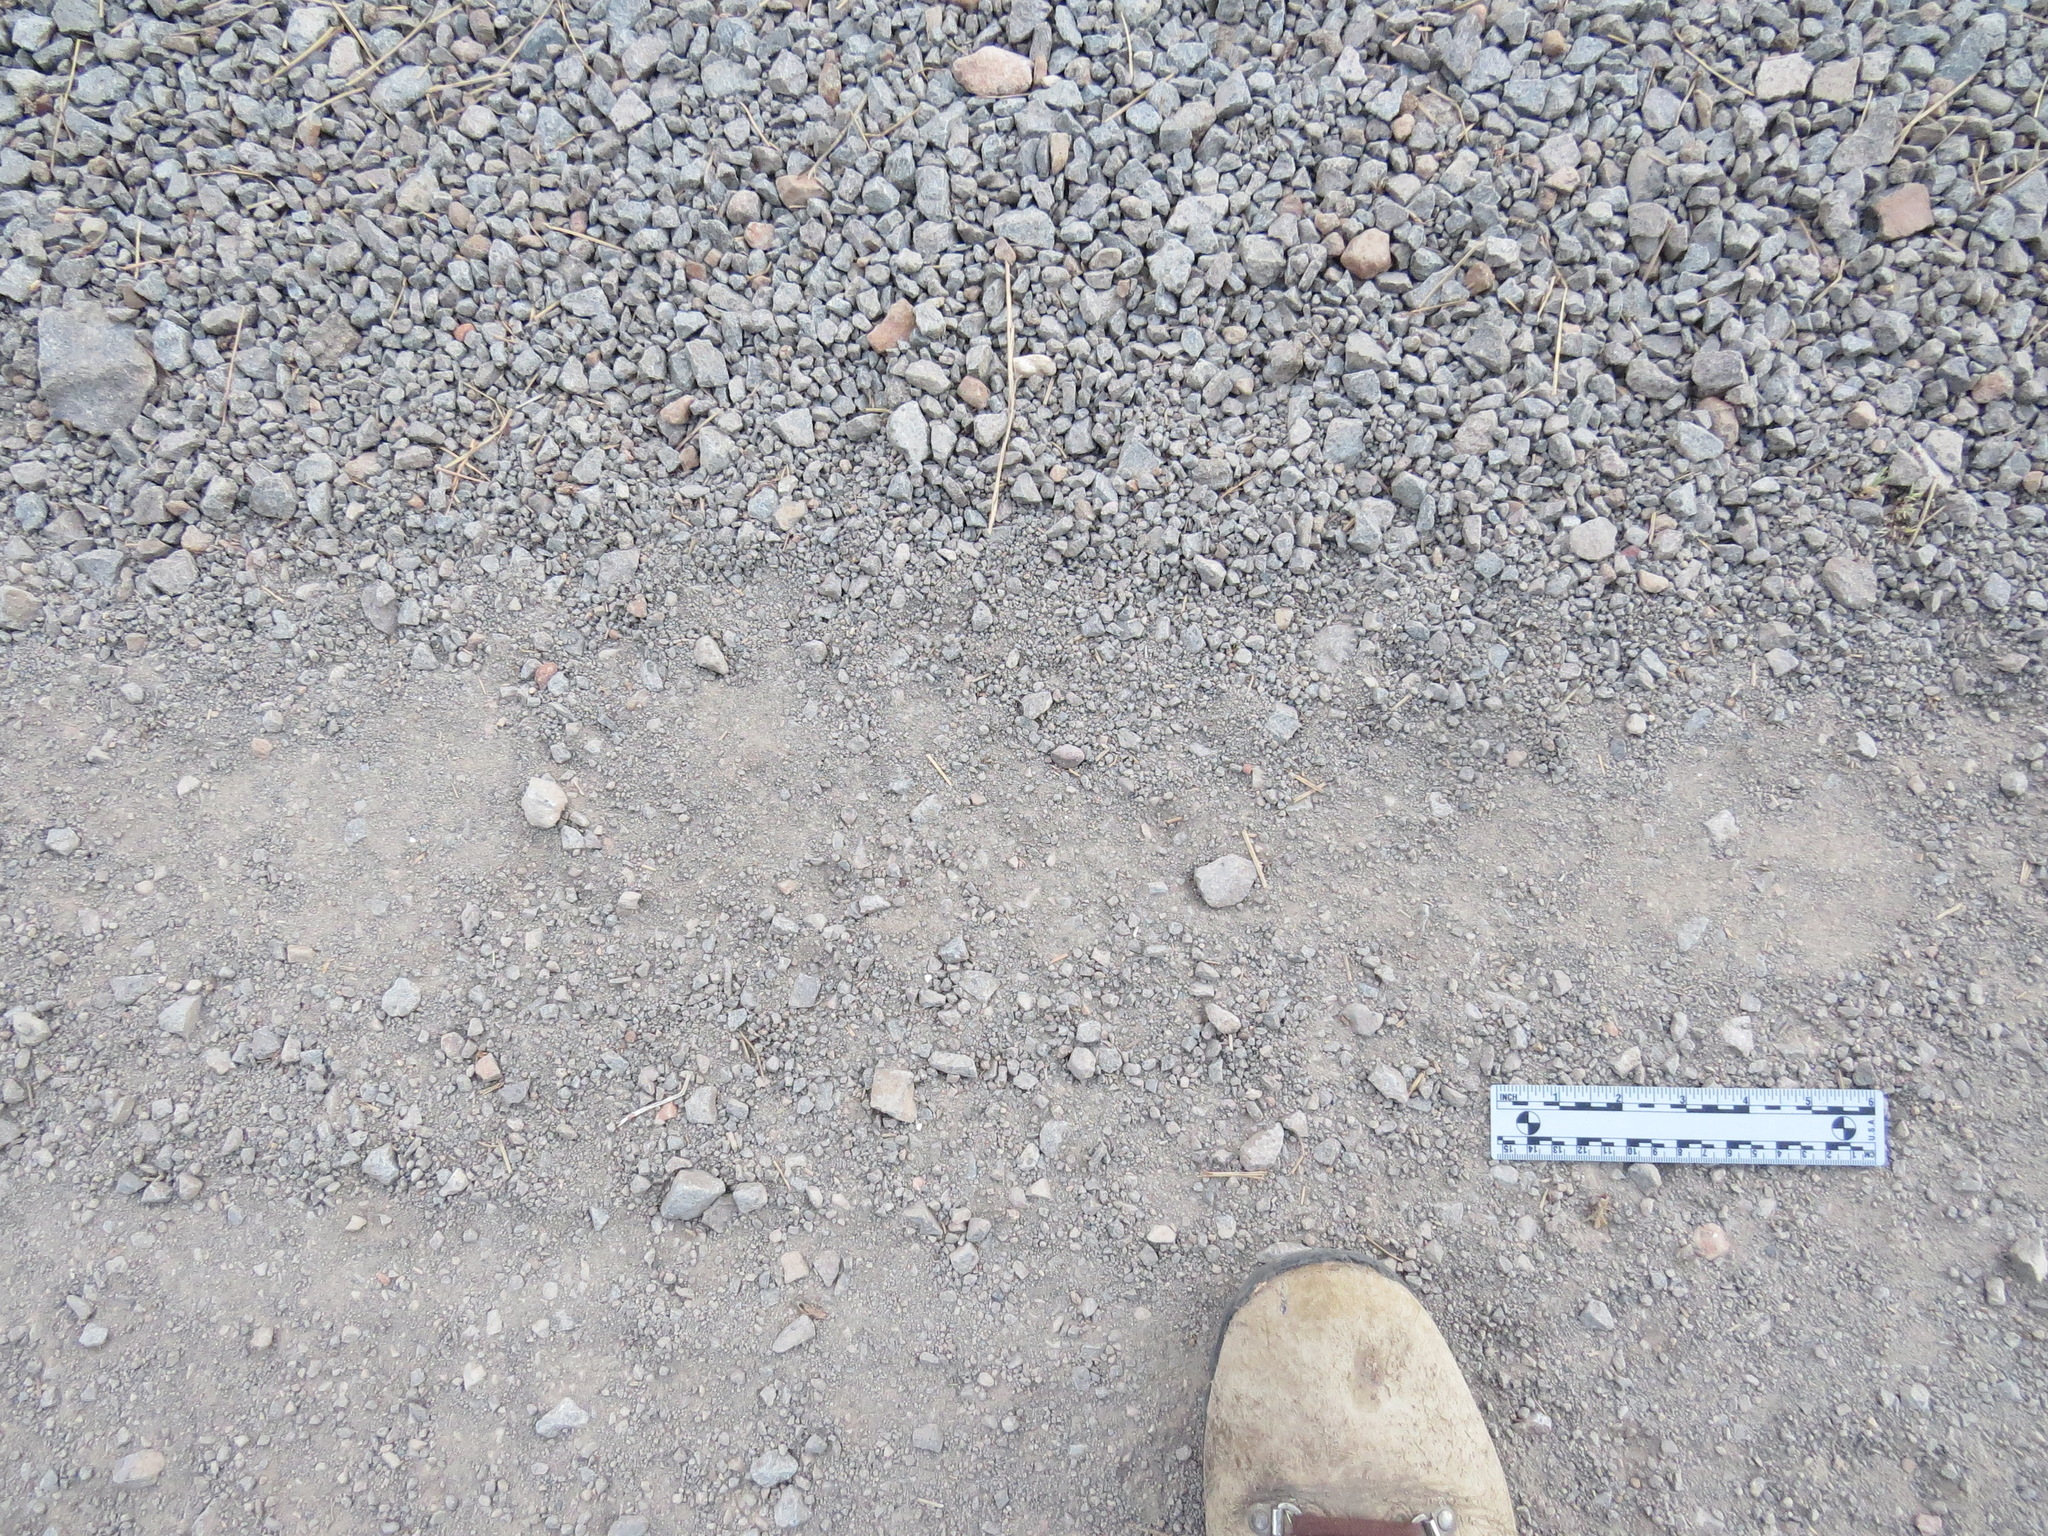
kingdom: Animalia
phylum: Chordata
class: Mammalia
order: Carnivora
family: Ursidae
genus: Ursus
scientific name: Ursus americanus
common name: American black bear
